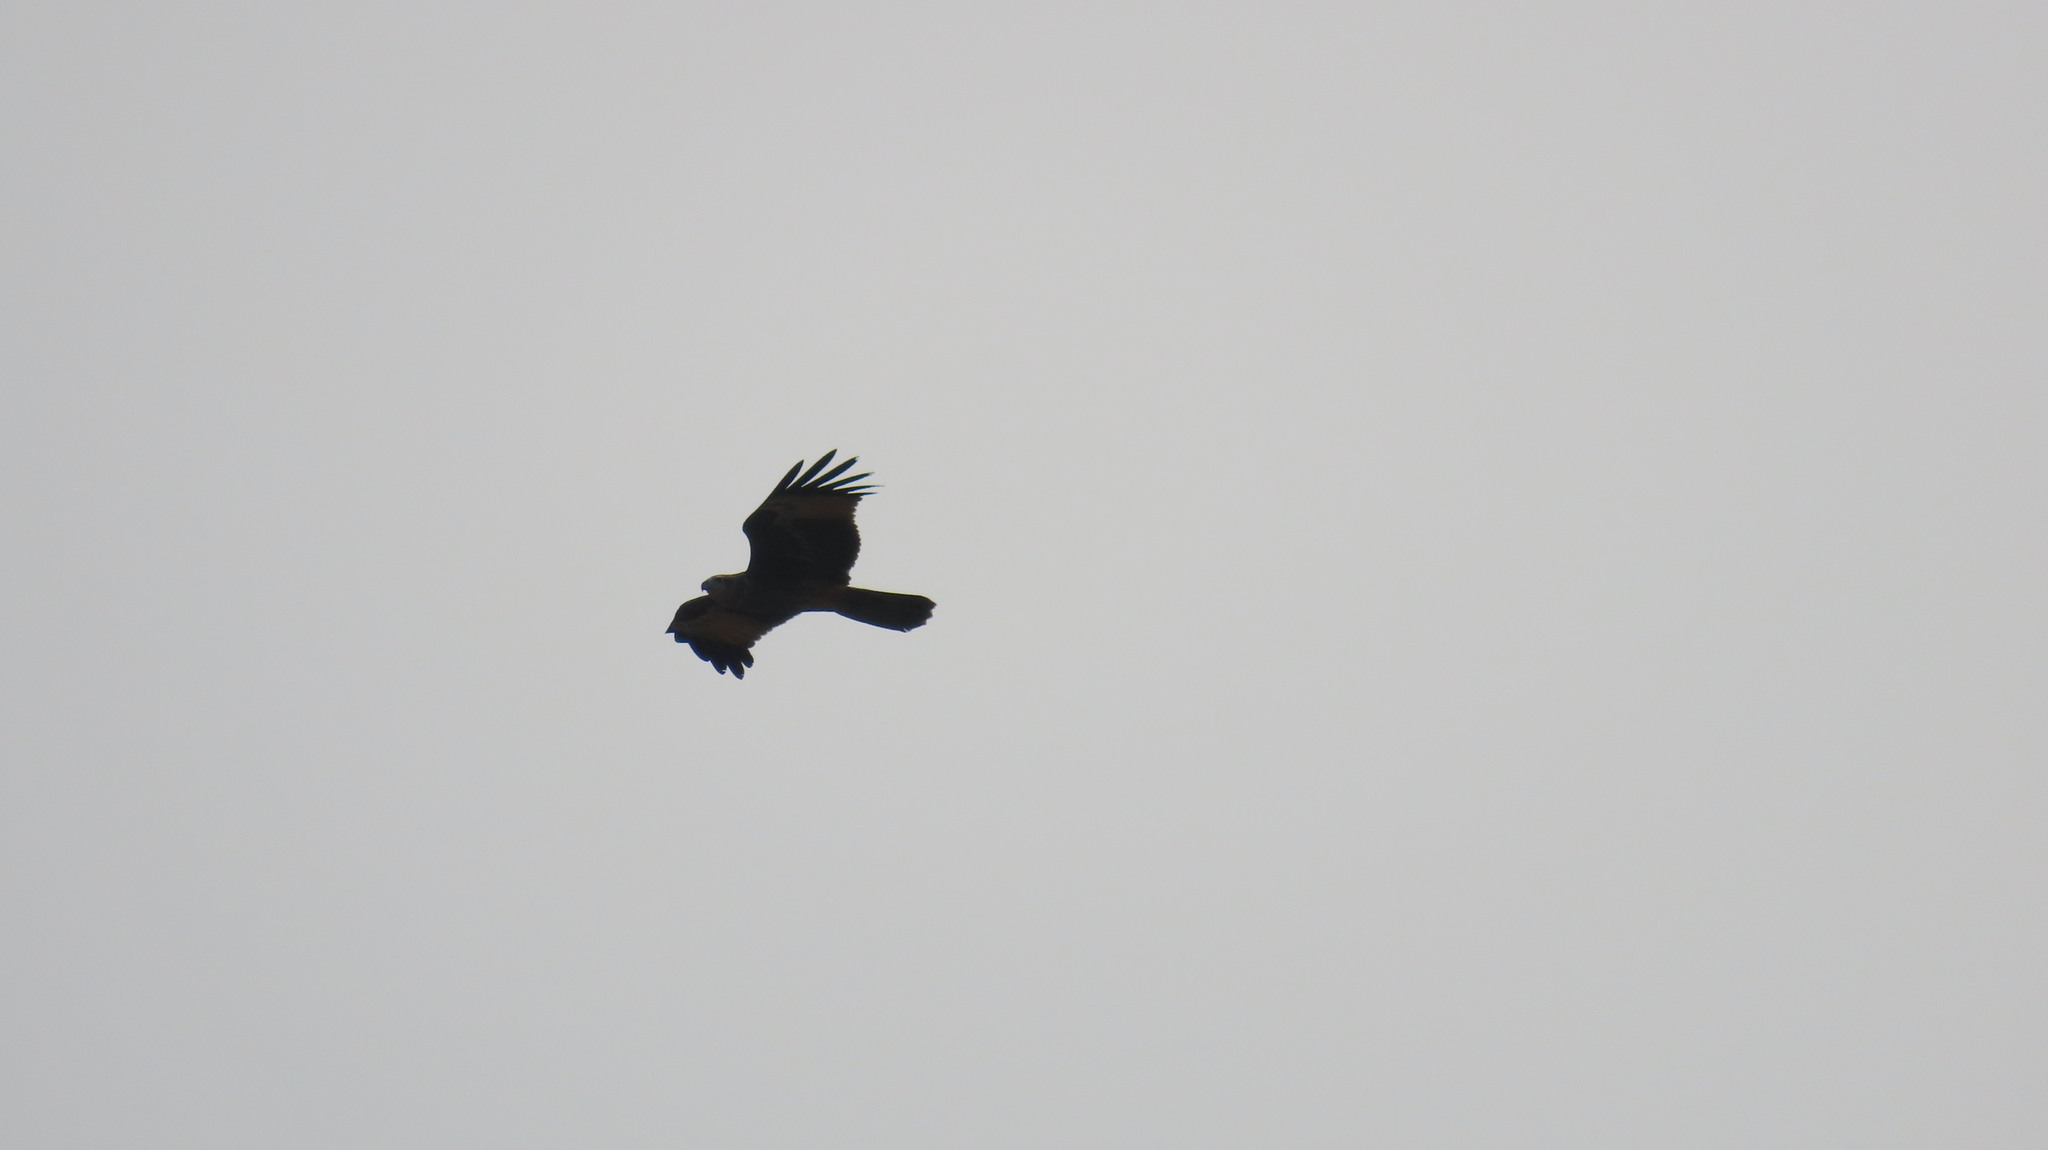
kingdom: Animalia
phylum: Chordata
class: Aves
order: Accipitriformes
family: Accipitridae
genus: Haliastur
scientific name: Haliastur indus
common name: Brahminy kite
